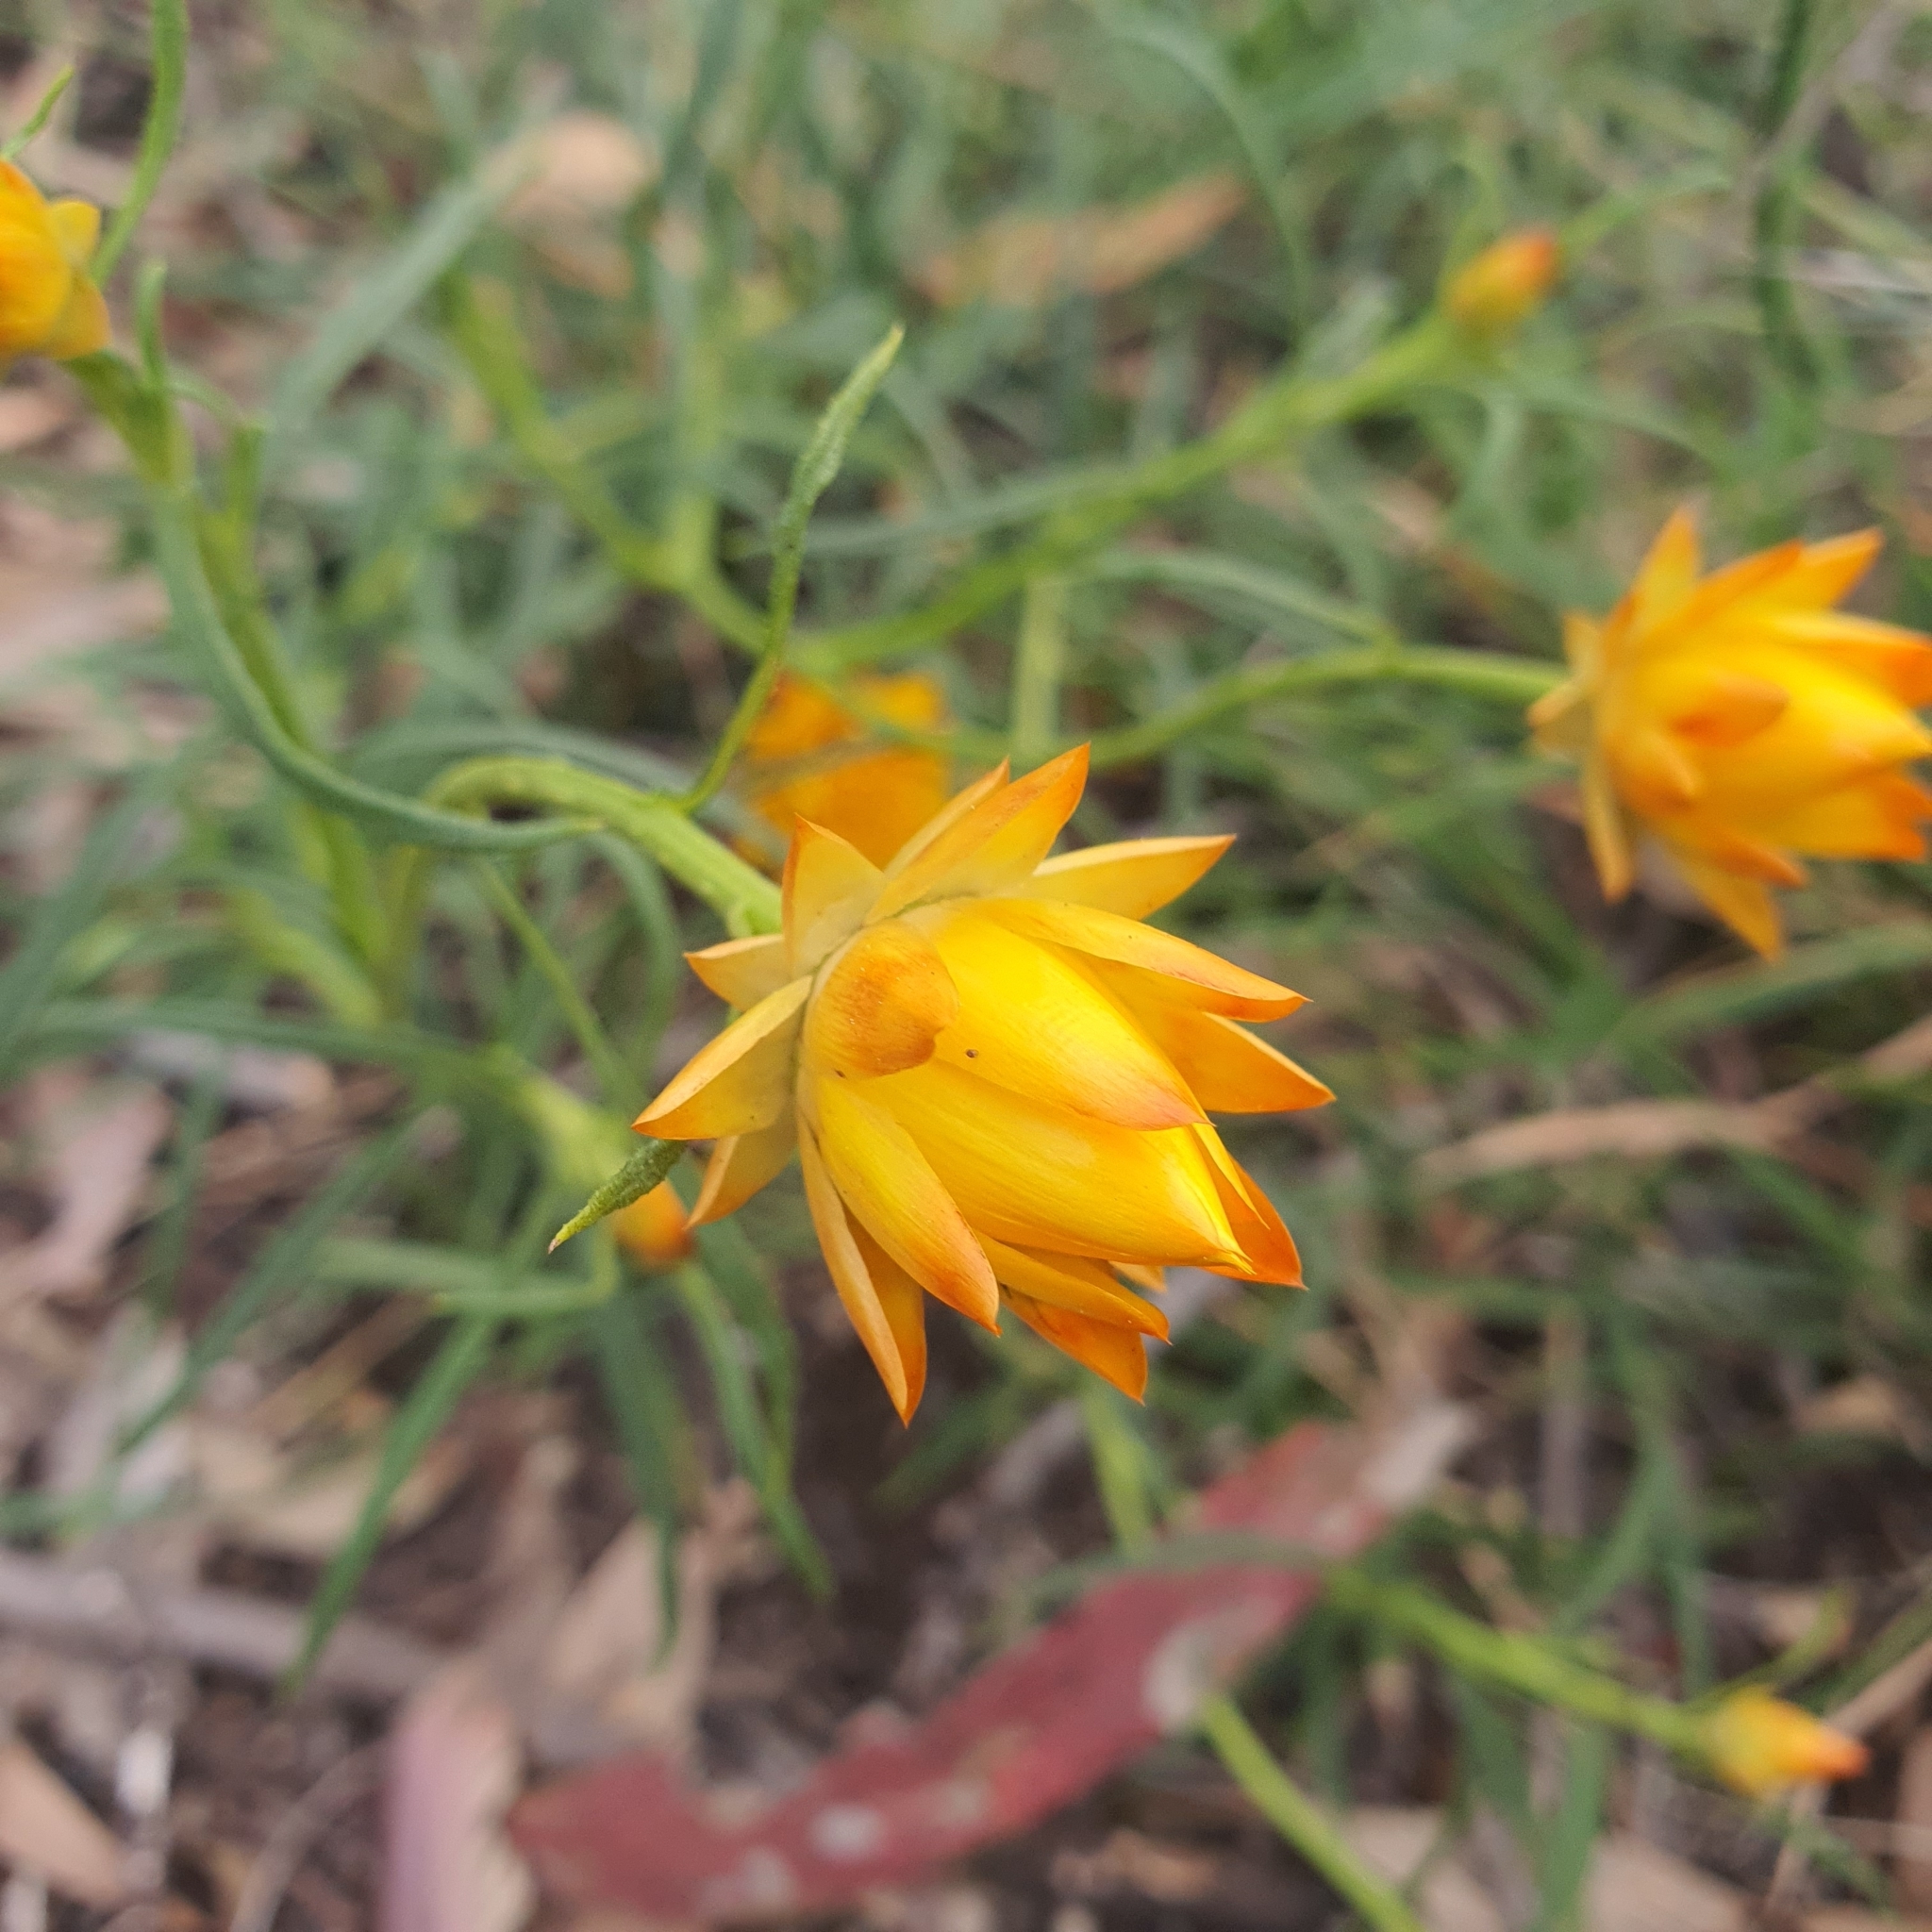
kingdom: Plantae
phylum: Tracheophyta
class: Magnoliopsida
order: Asterales
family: Asteraceae
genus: Xerochrysum
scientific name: Xerochrysum viscosum
